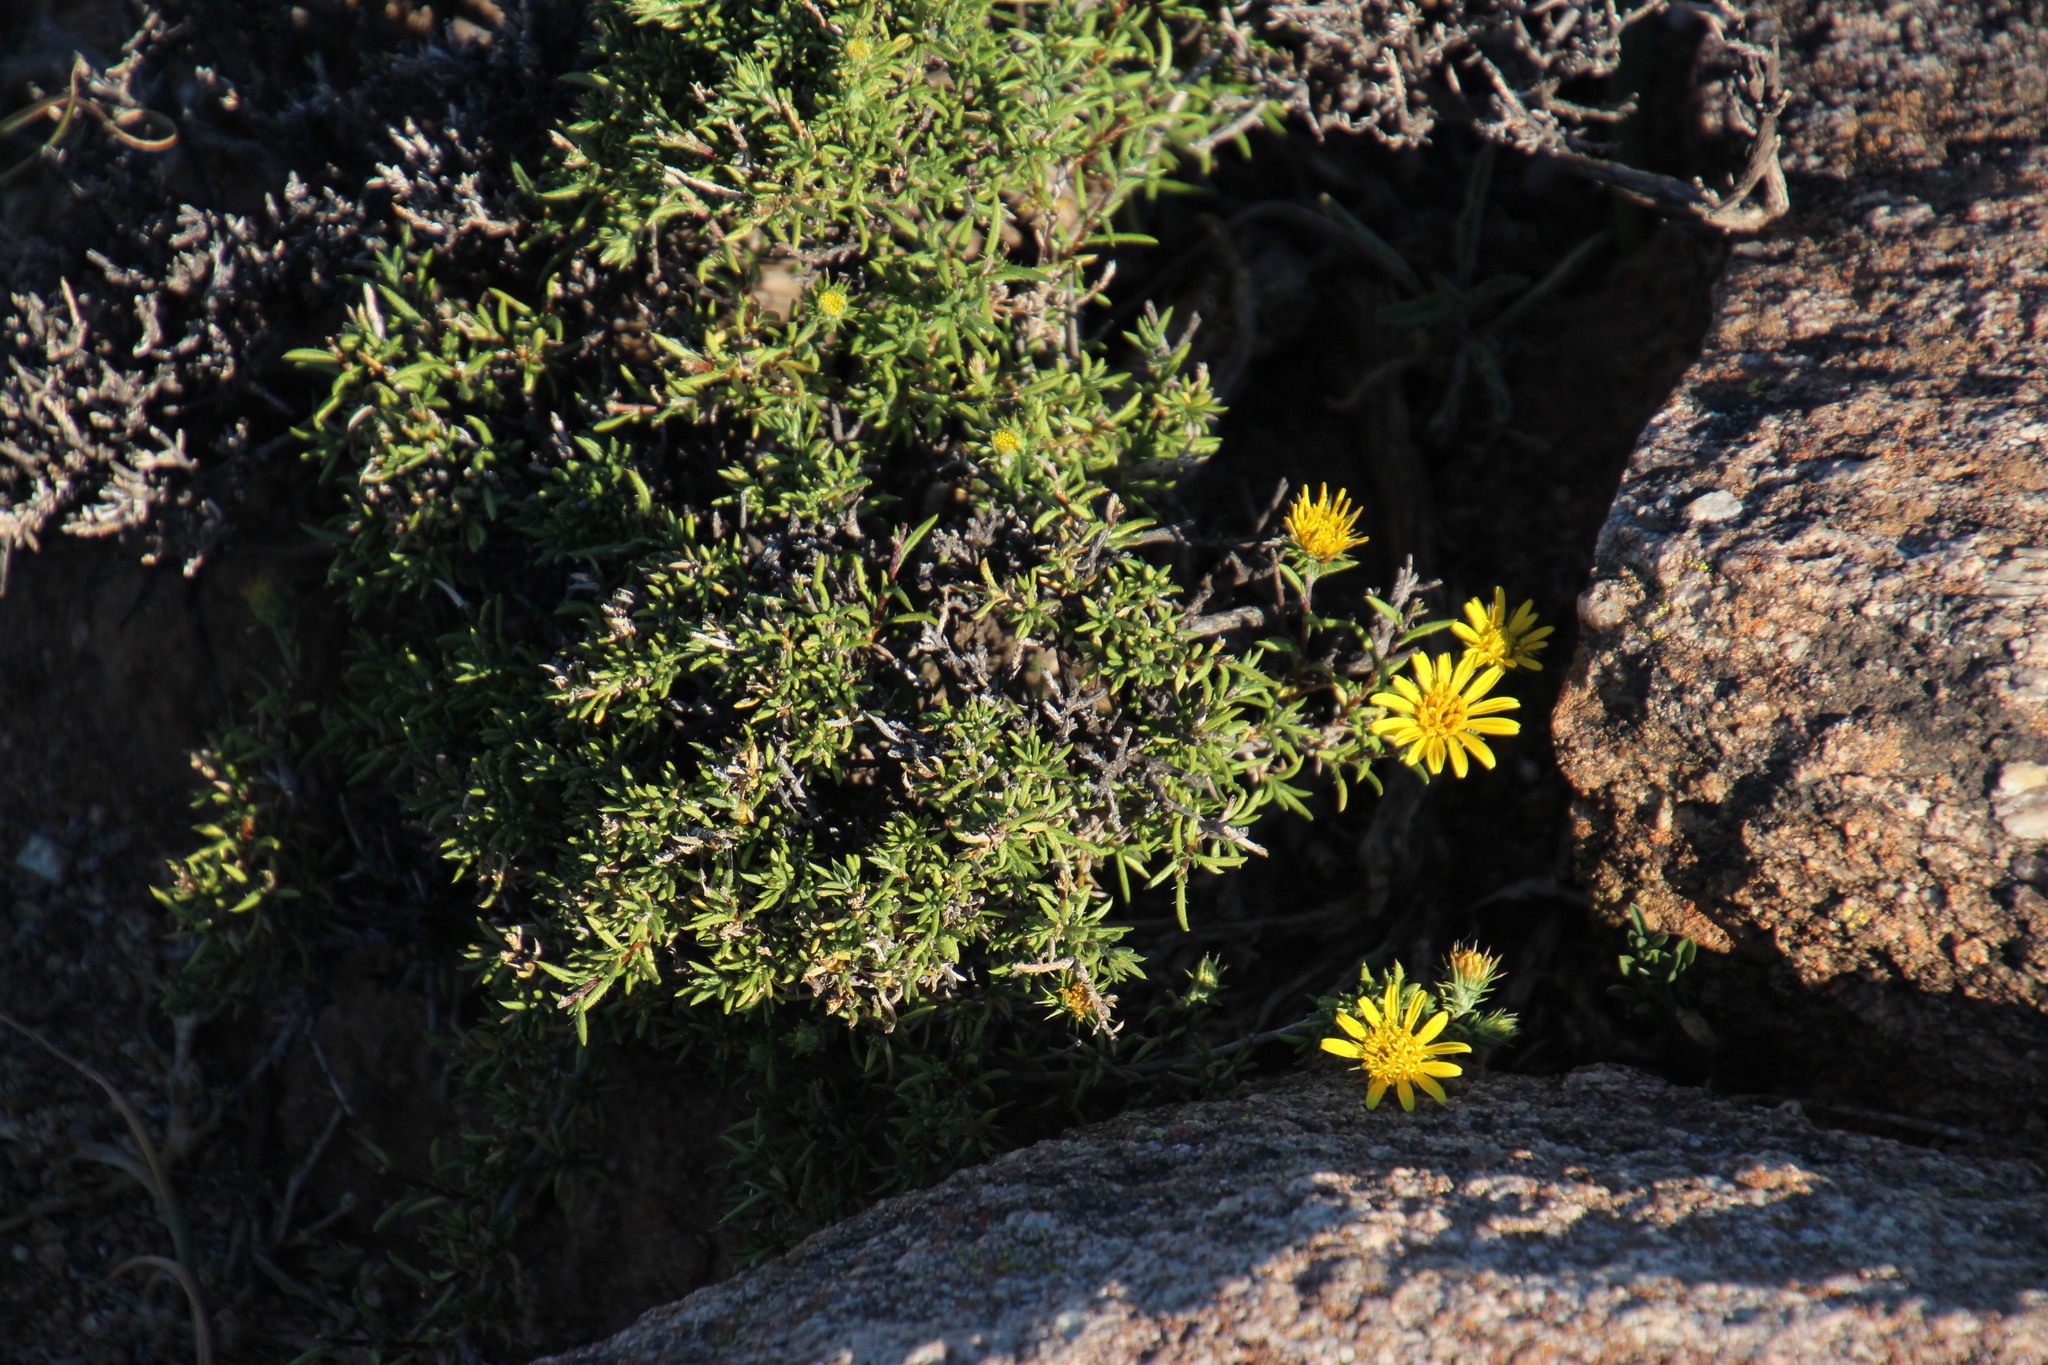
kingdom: Plantae
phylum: Tracheophyta
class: Magnoliopsida
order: Asterales
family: Asteraceae
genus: Gorteria
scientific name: Gorteria alienata
